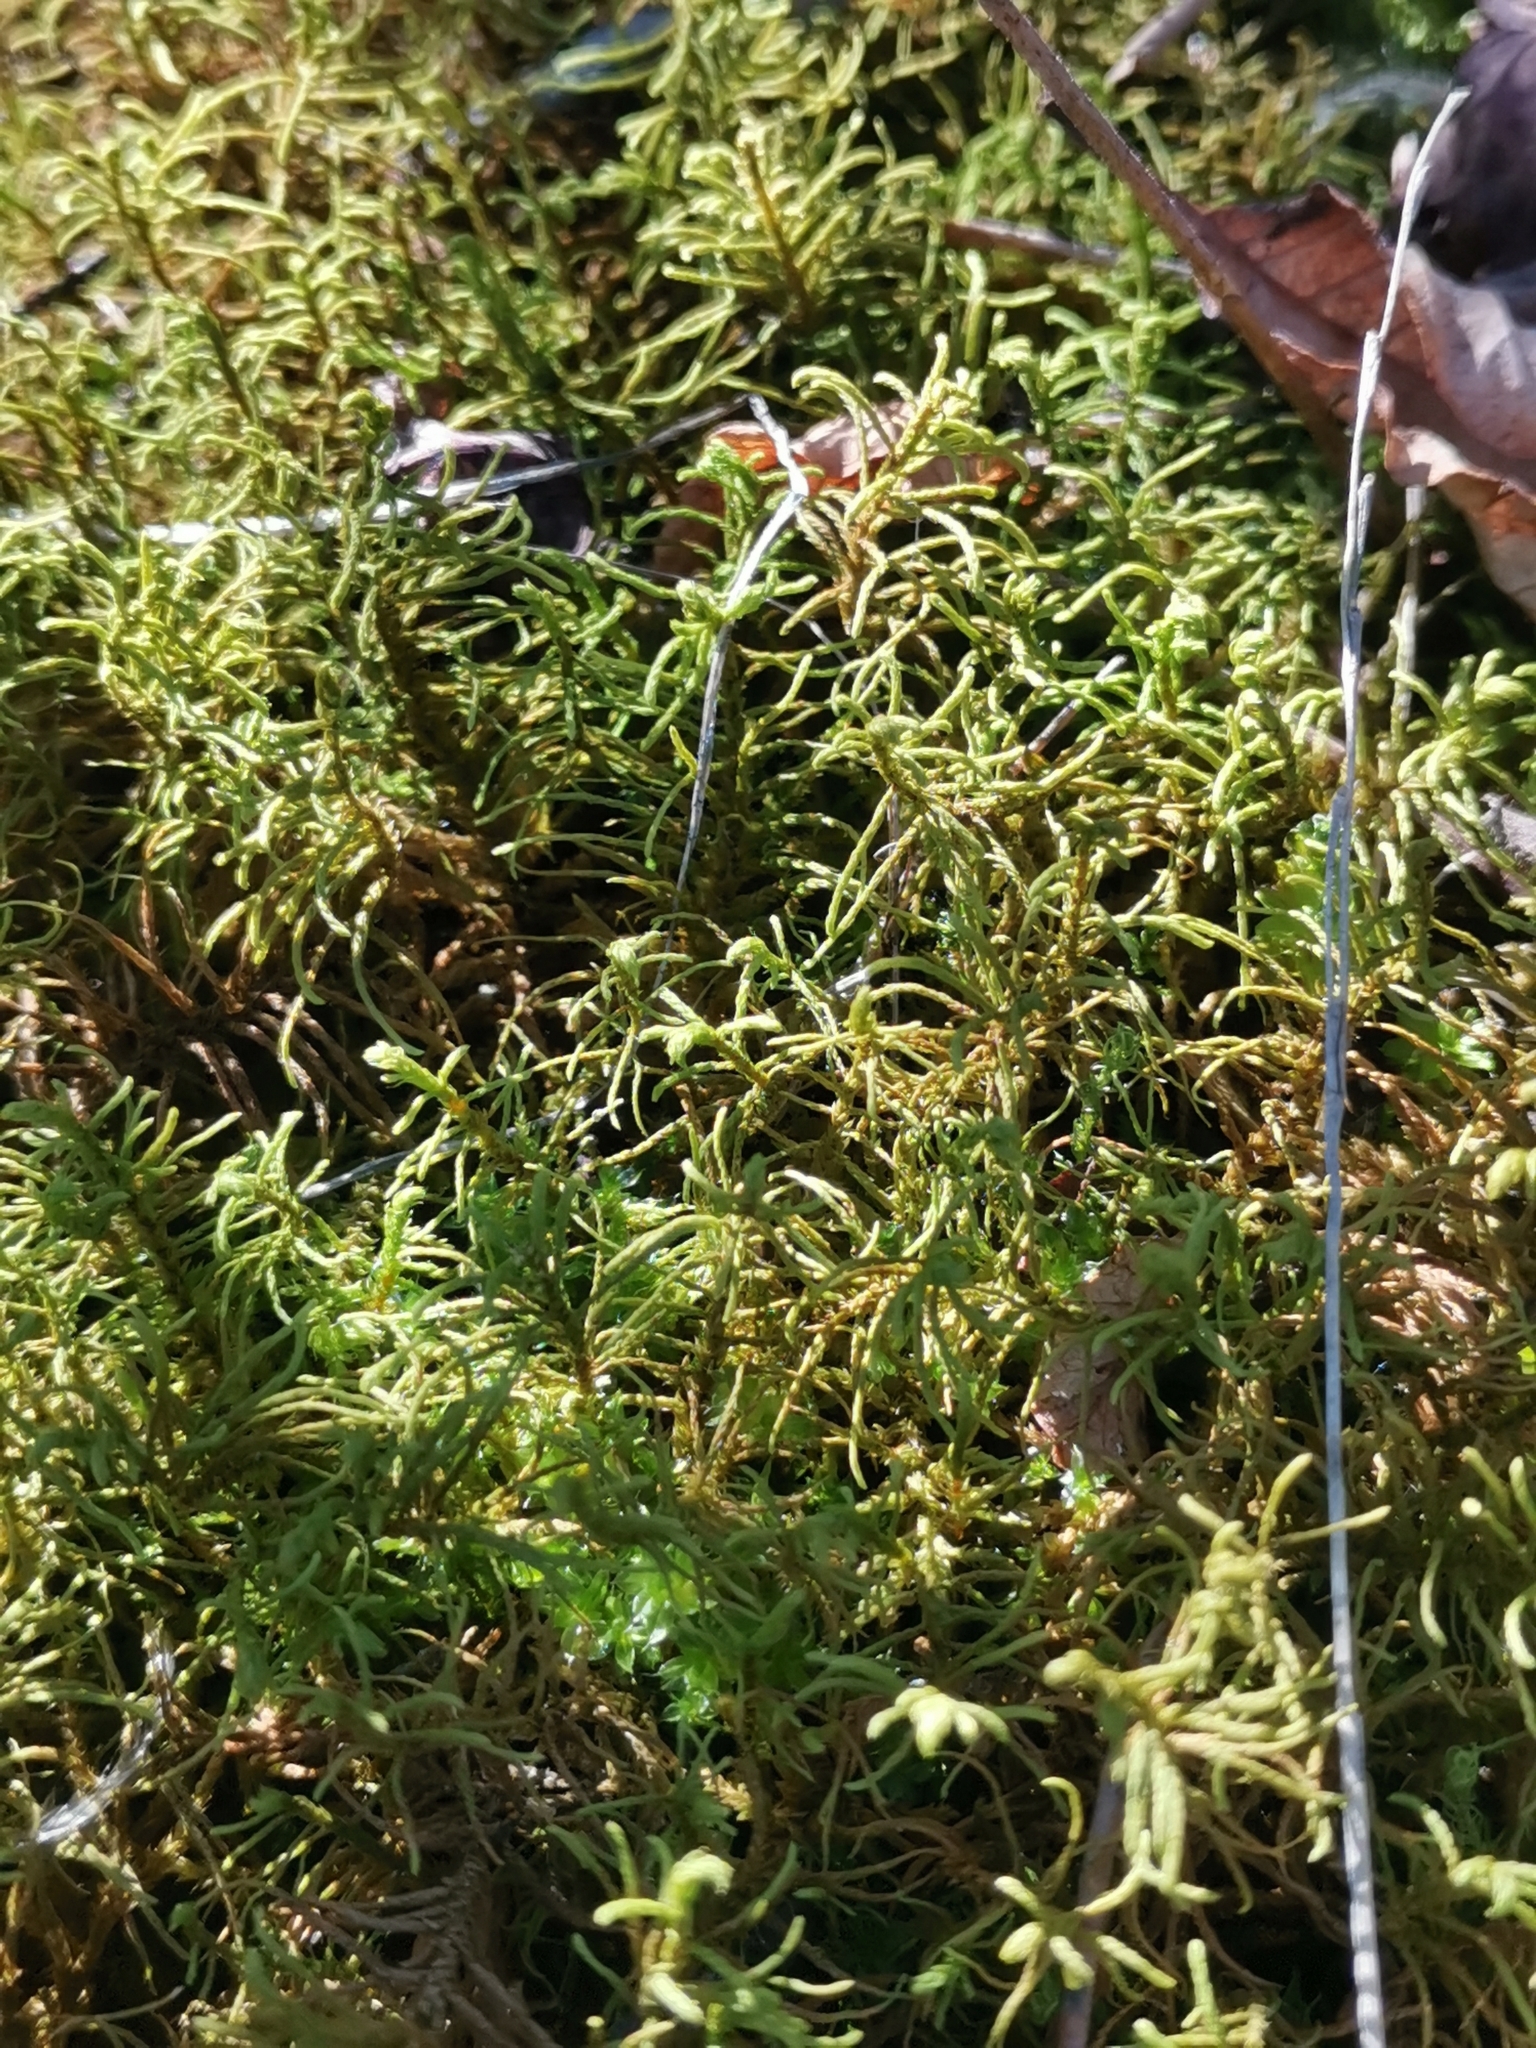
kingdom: Plantae
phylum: Bryophyta
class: Bryopsida
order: Hypnales
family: Thuidiaceae
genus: Abietinella
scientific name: Abietinella abietina
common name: Wiry fern moss
